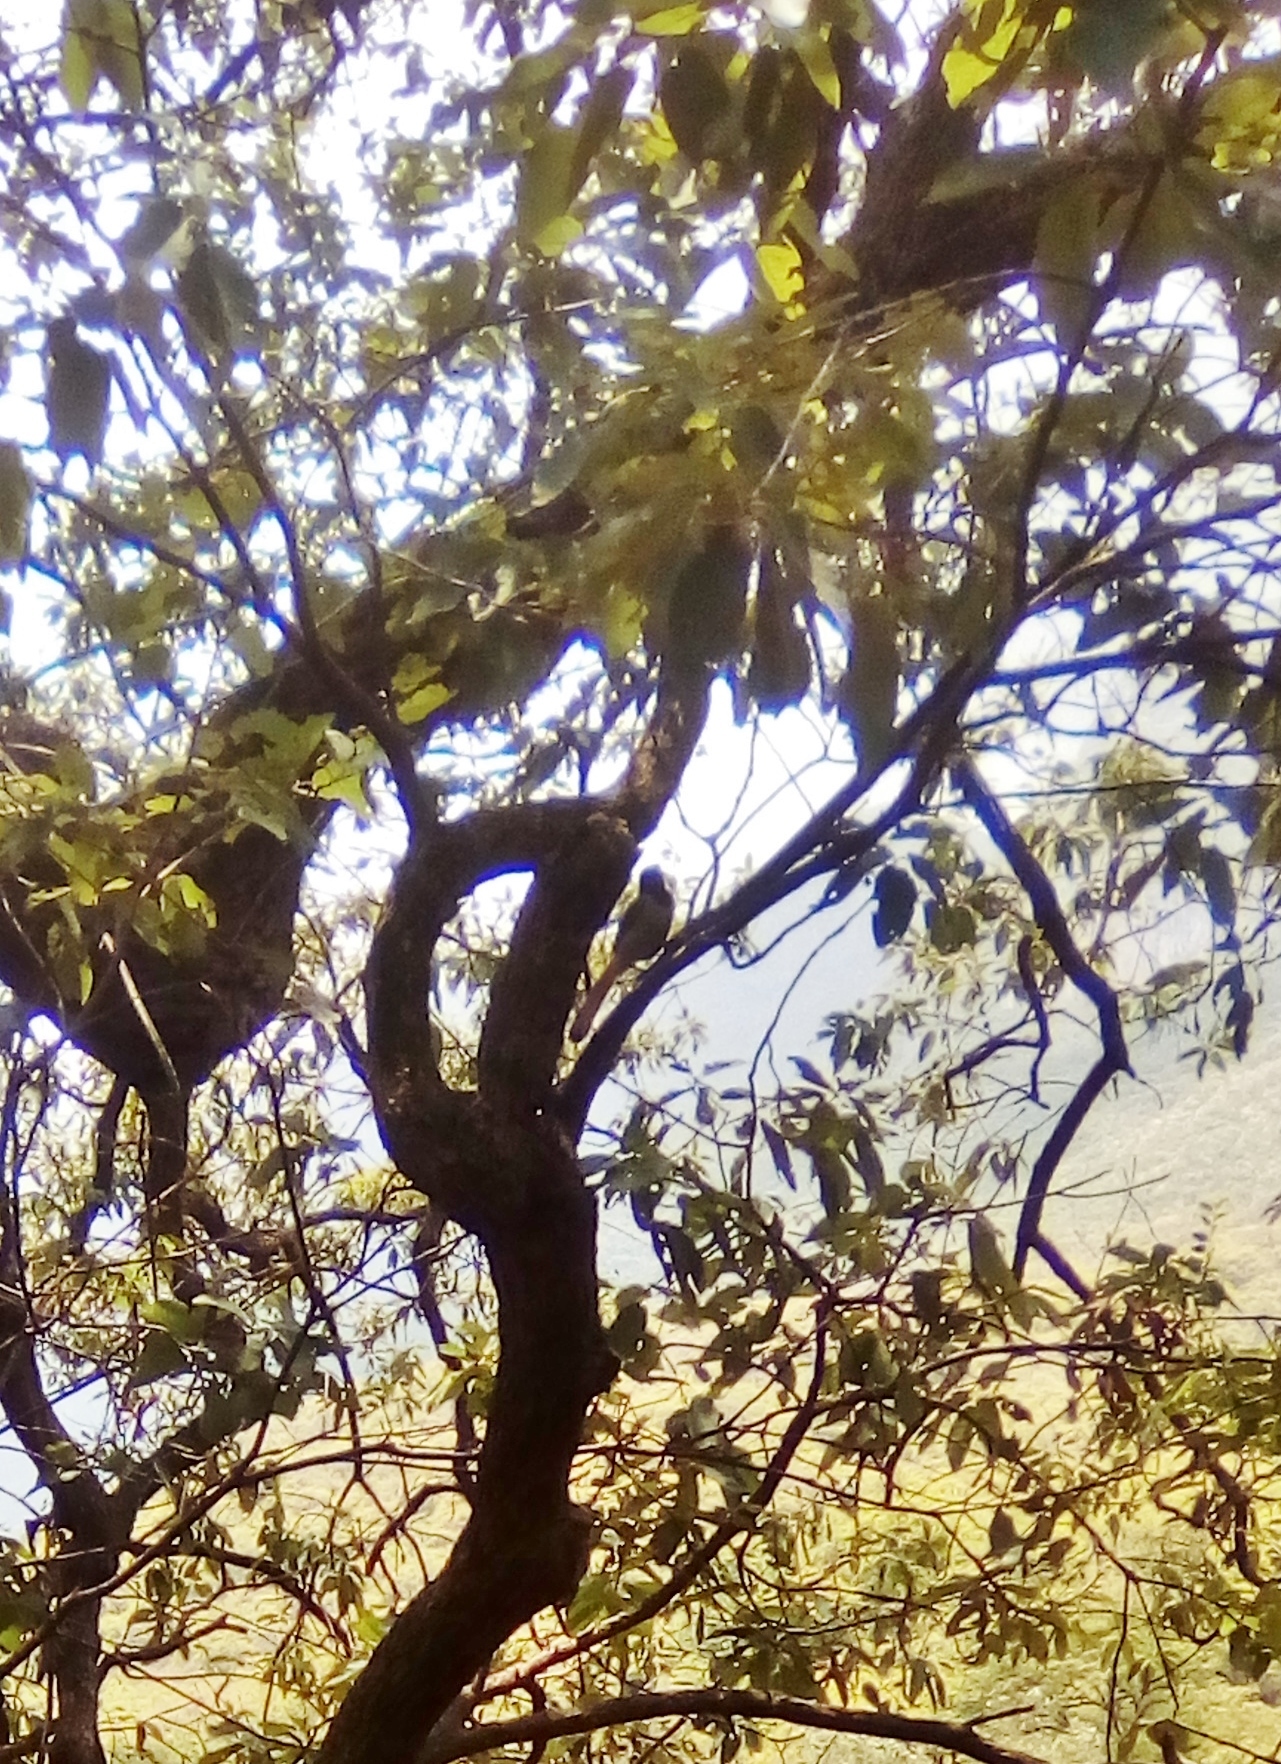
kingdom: Animalia
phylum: Chordata
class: Aves
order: Passeriformes
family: Corvidae
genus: Cyanocorax
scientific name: Cyanocorax yncas
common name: Green jay
